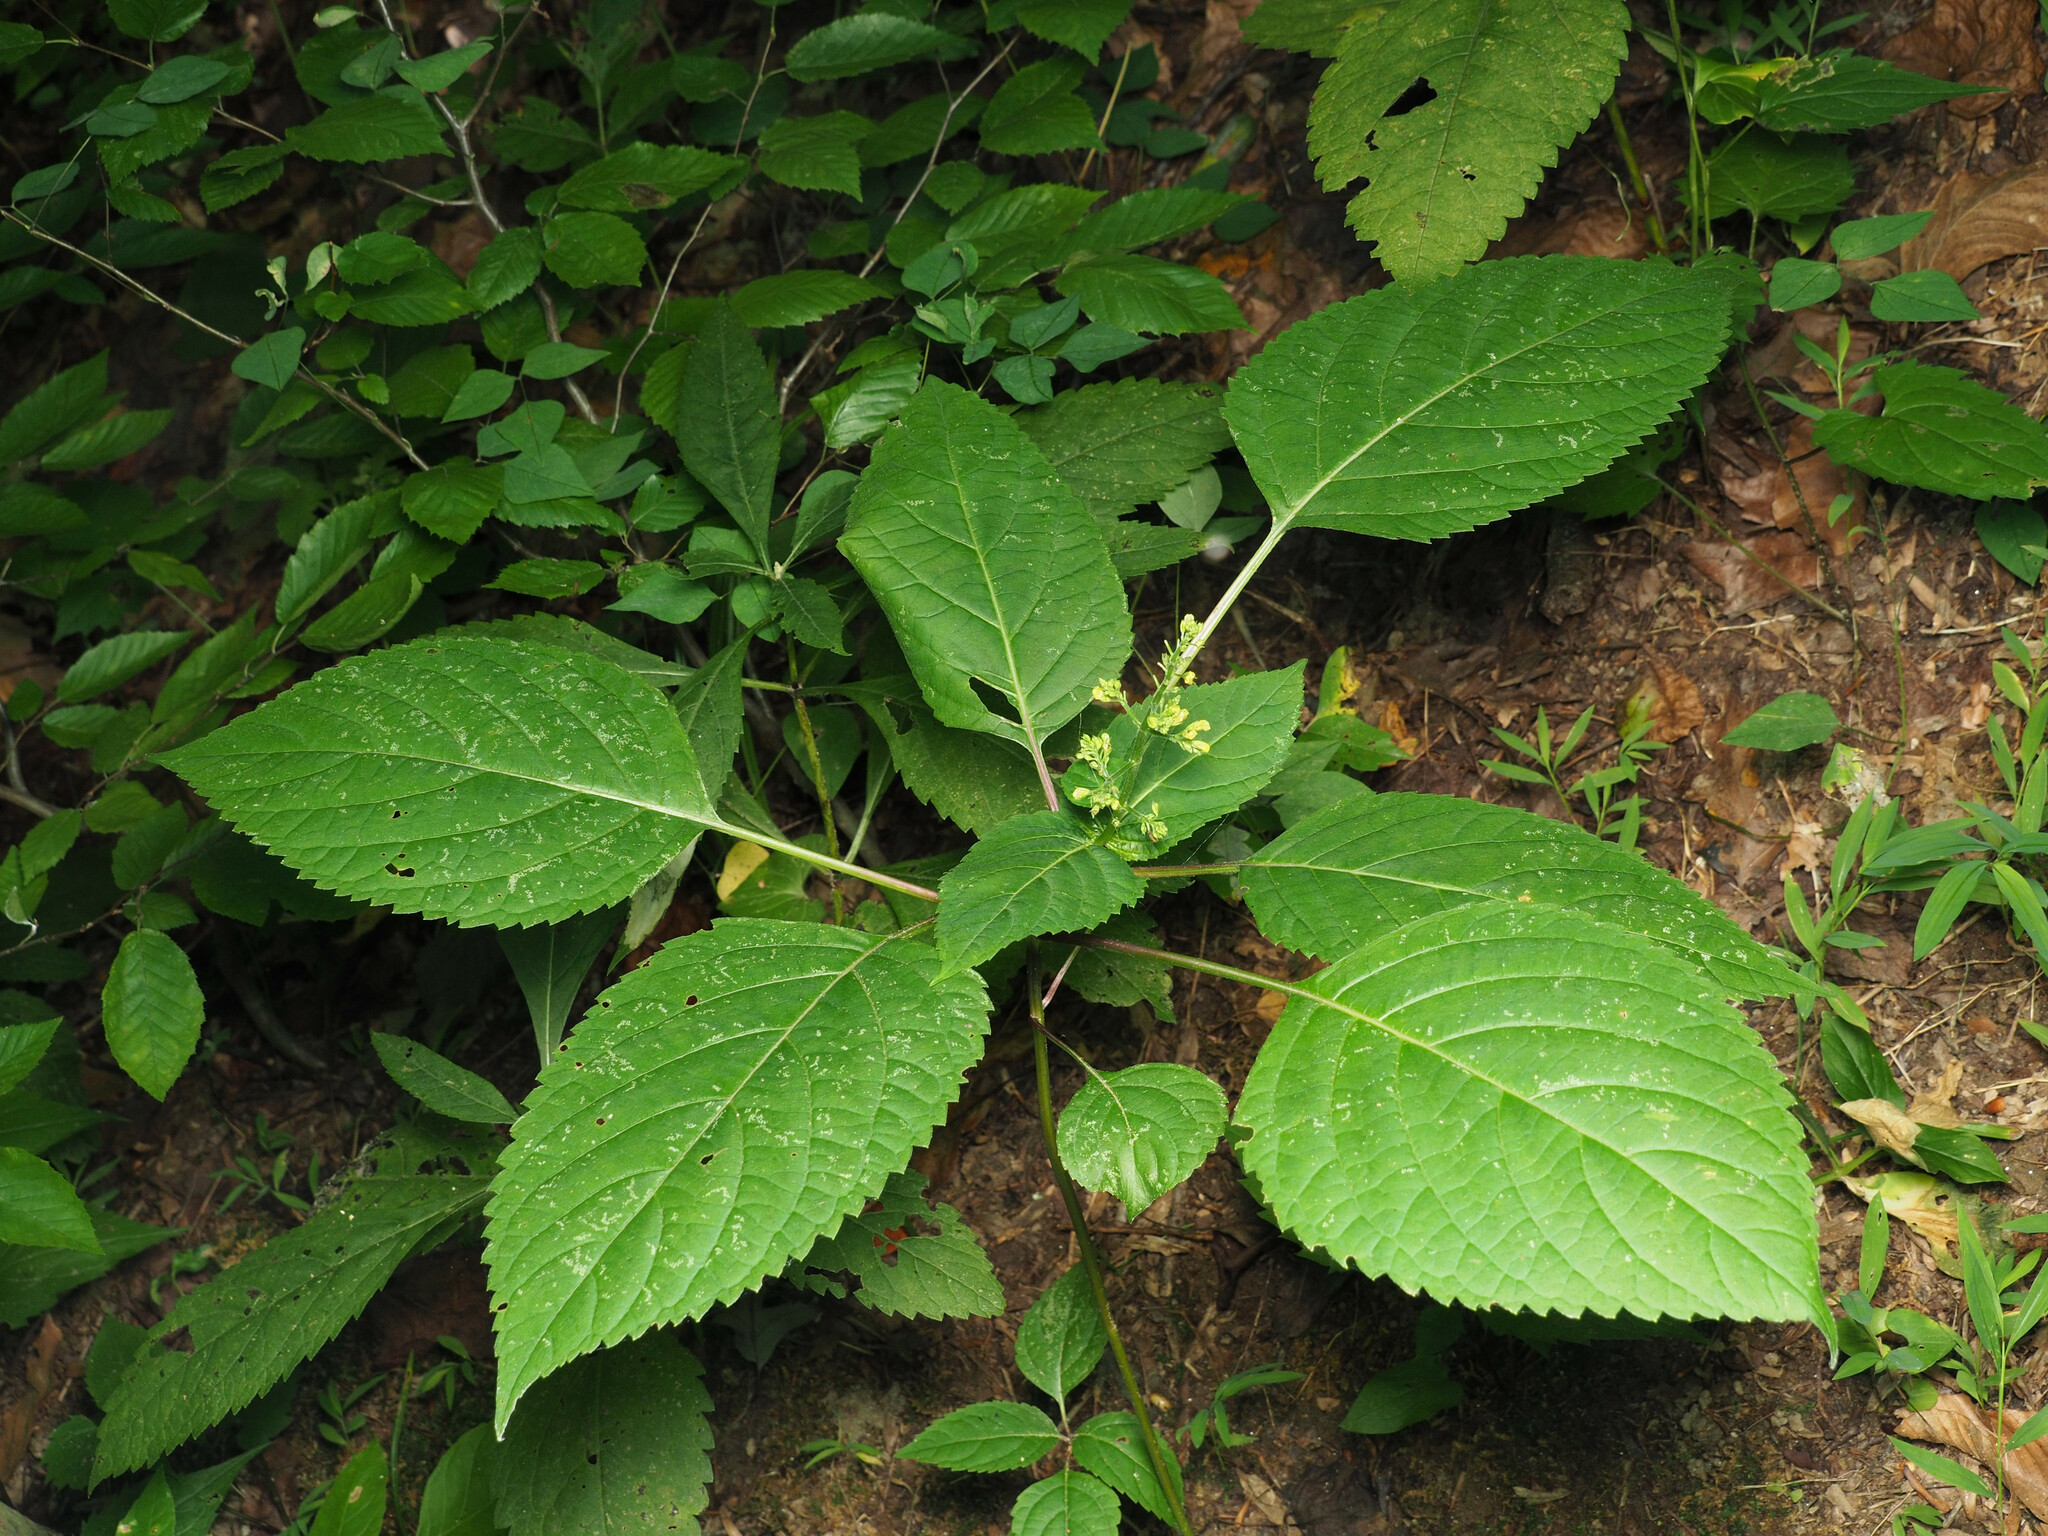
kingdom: Plantae
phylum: Tracheophyta
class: Magnoliopsida
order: Lamiales
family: Lamiaceae
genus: Collinsonia
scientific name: Collinsonia canadensis
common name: Northern horsebalm
